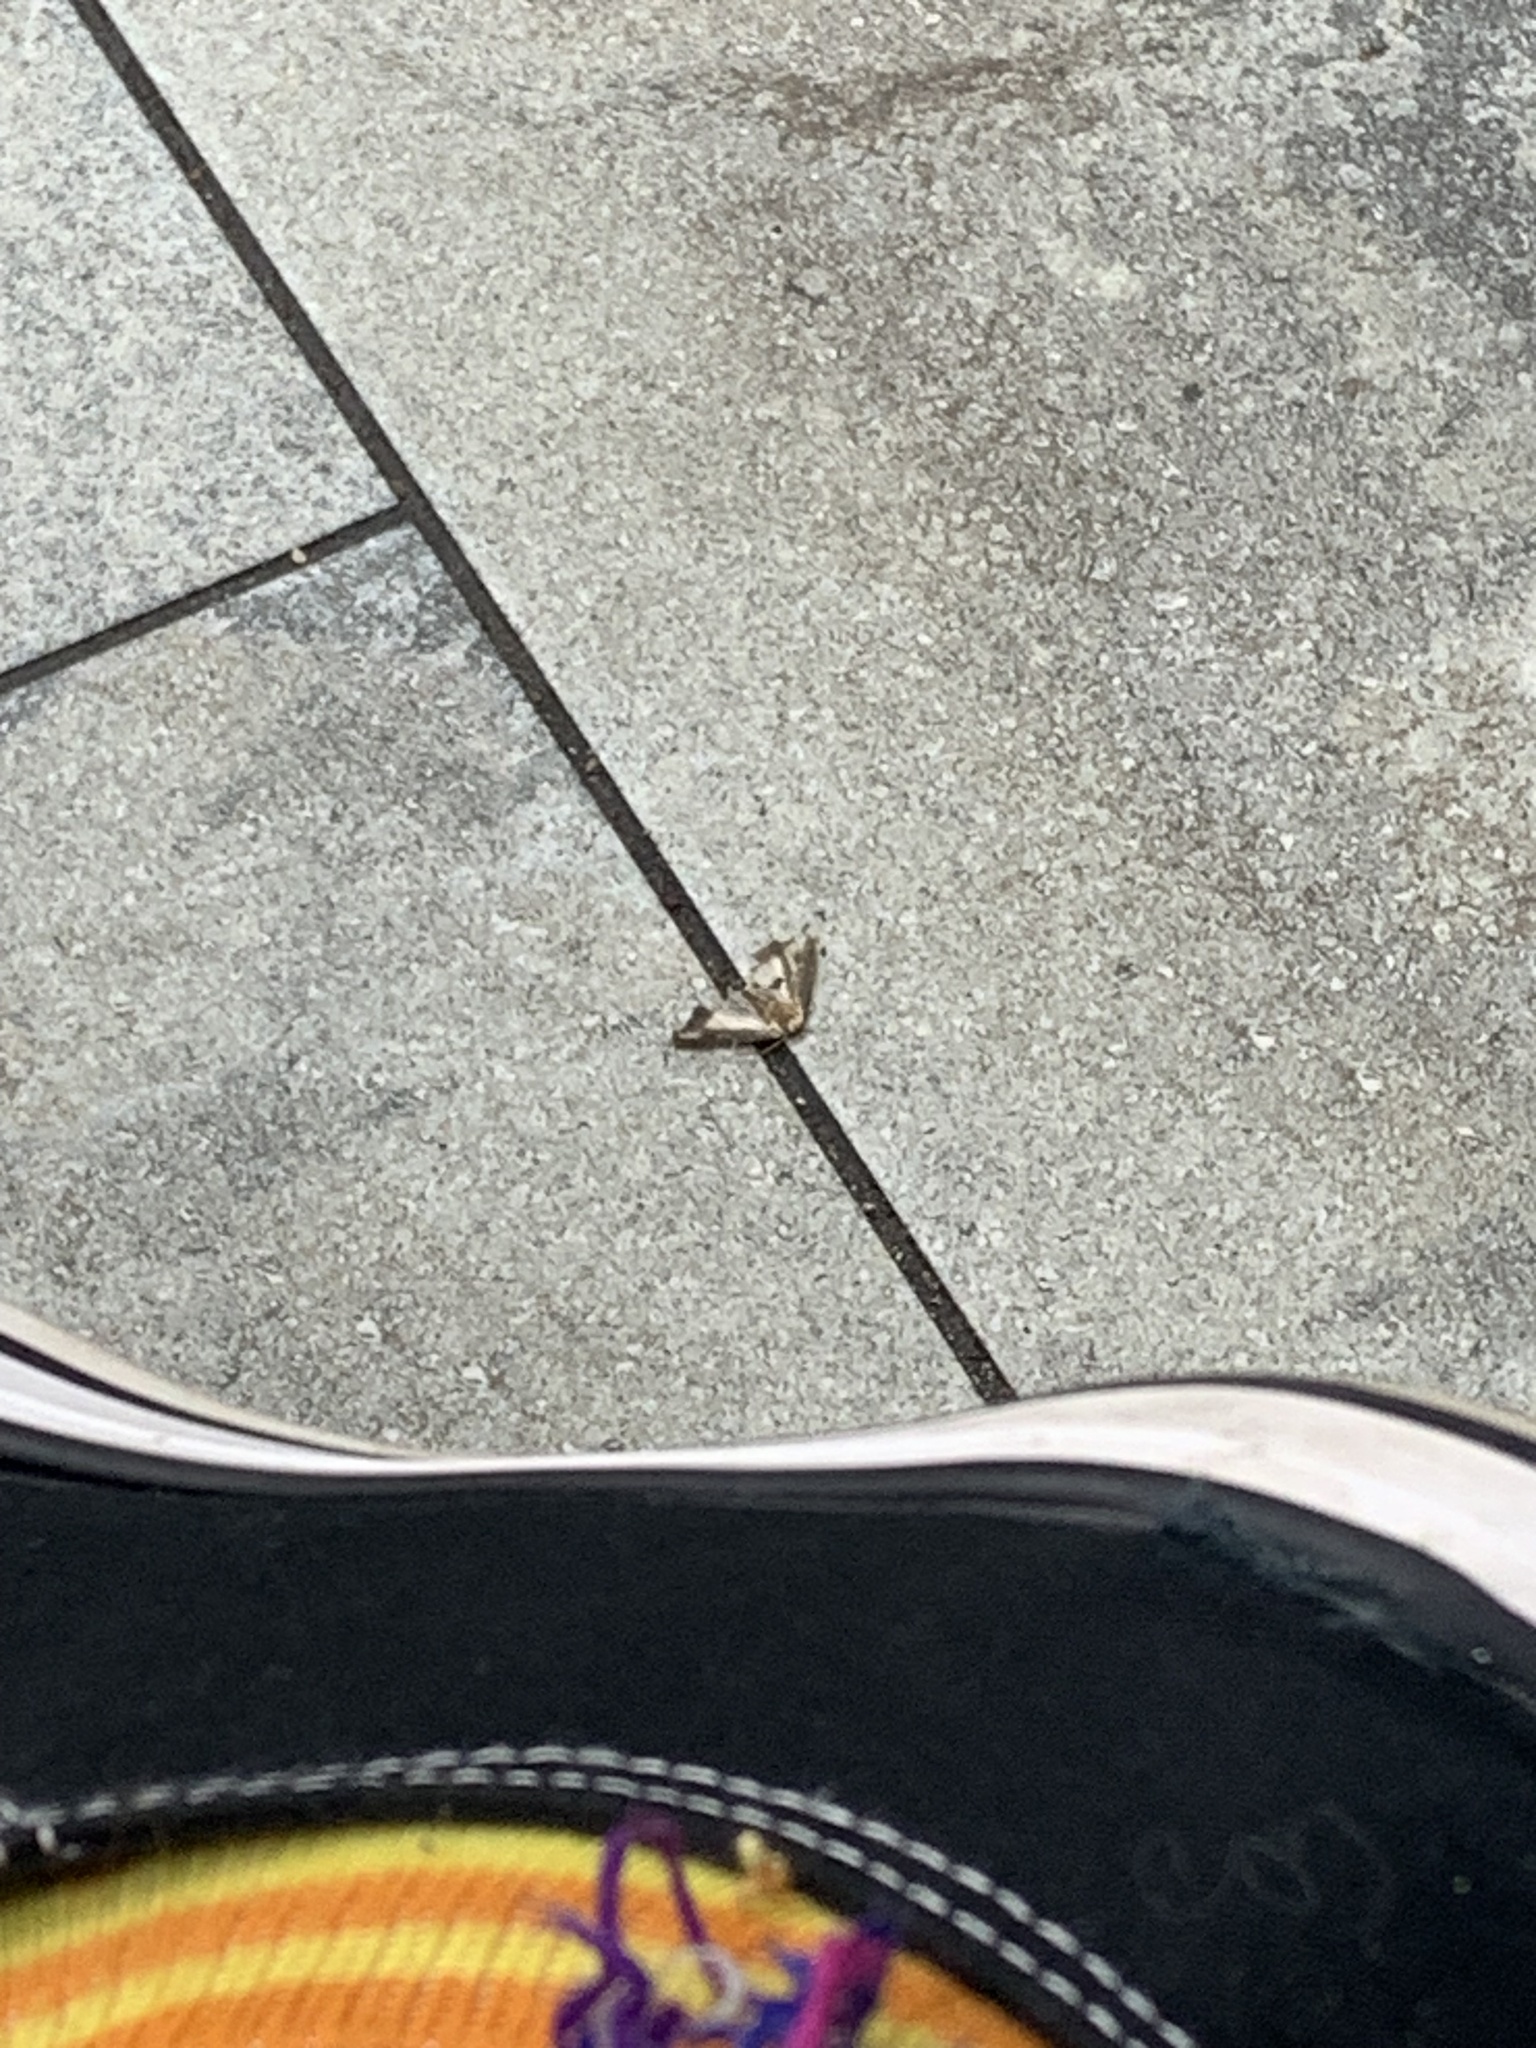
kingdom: Animalia
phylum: Arthropoda
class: Insecta
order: Lepidoptera
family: Crambidae
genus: Cydalima
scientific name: Cydalima perspectalis
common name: Box tree moth
